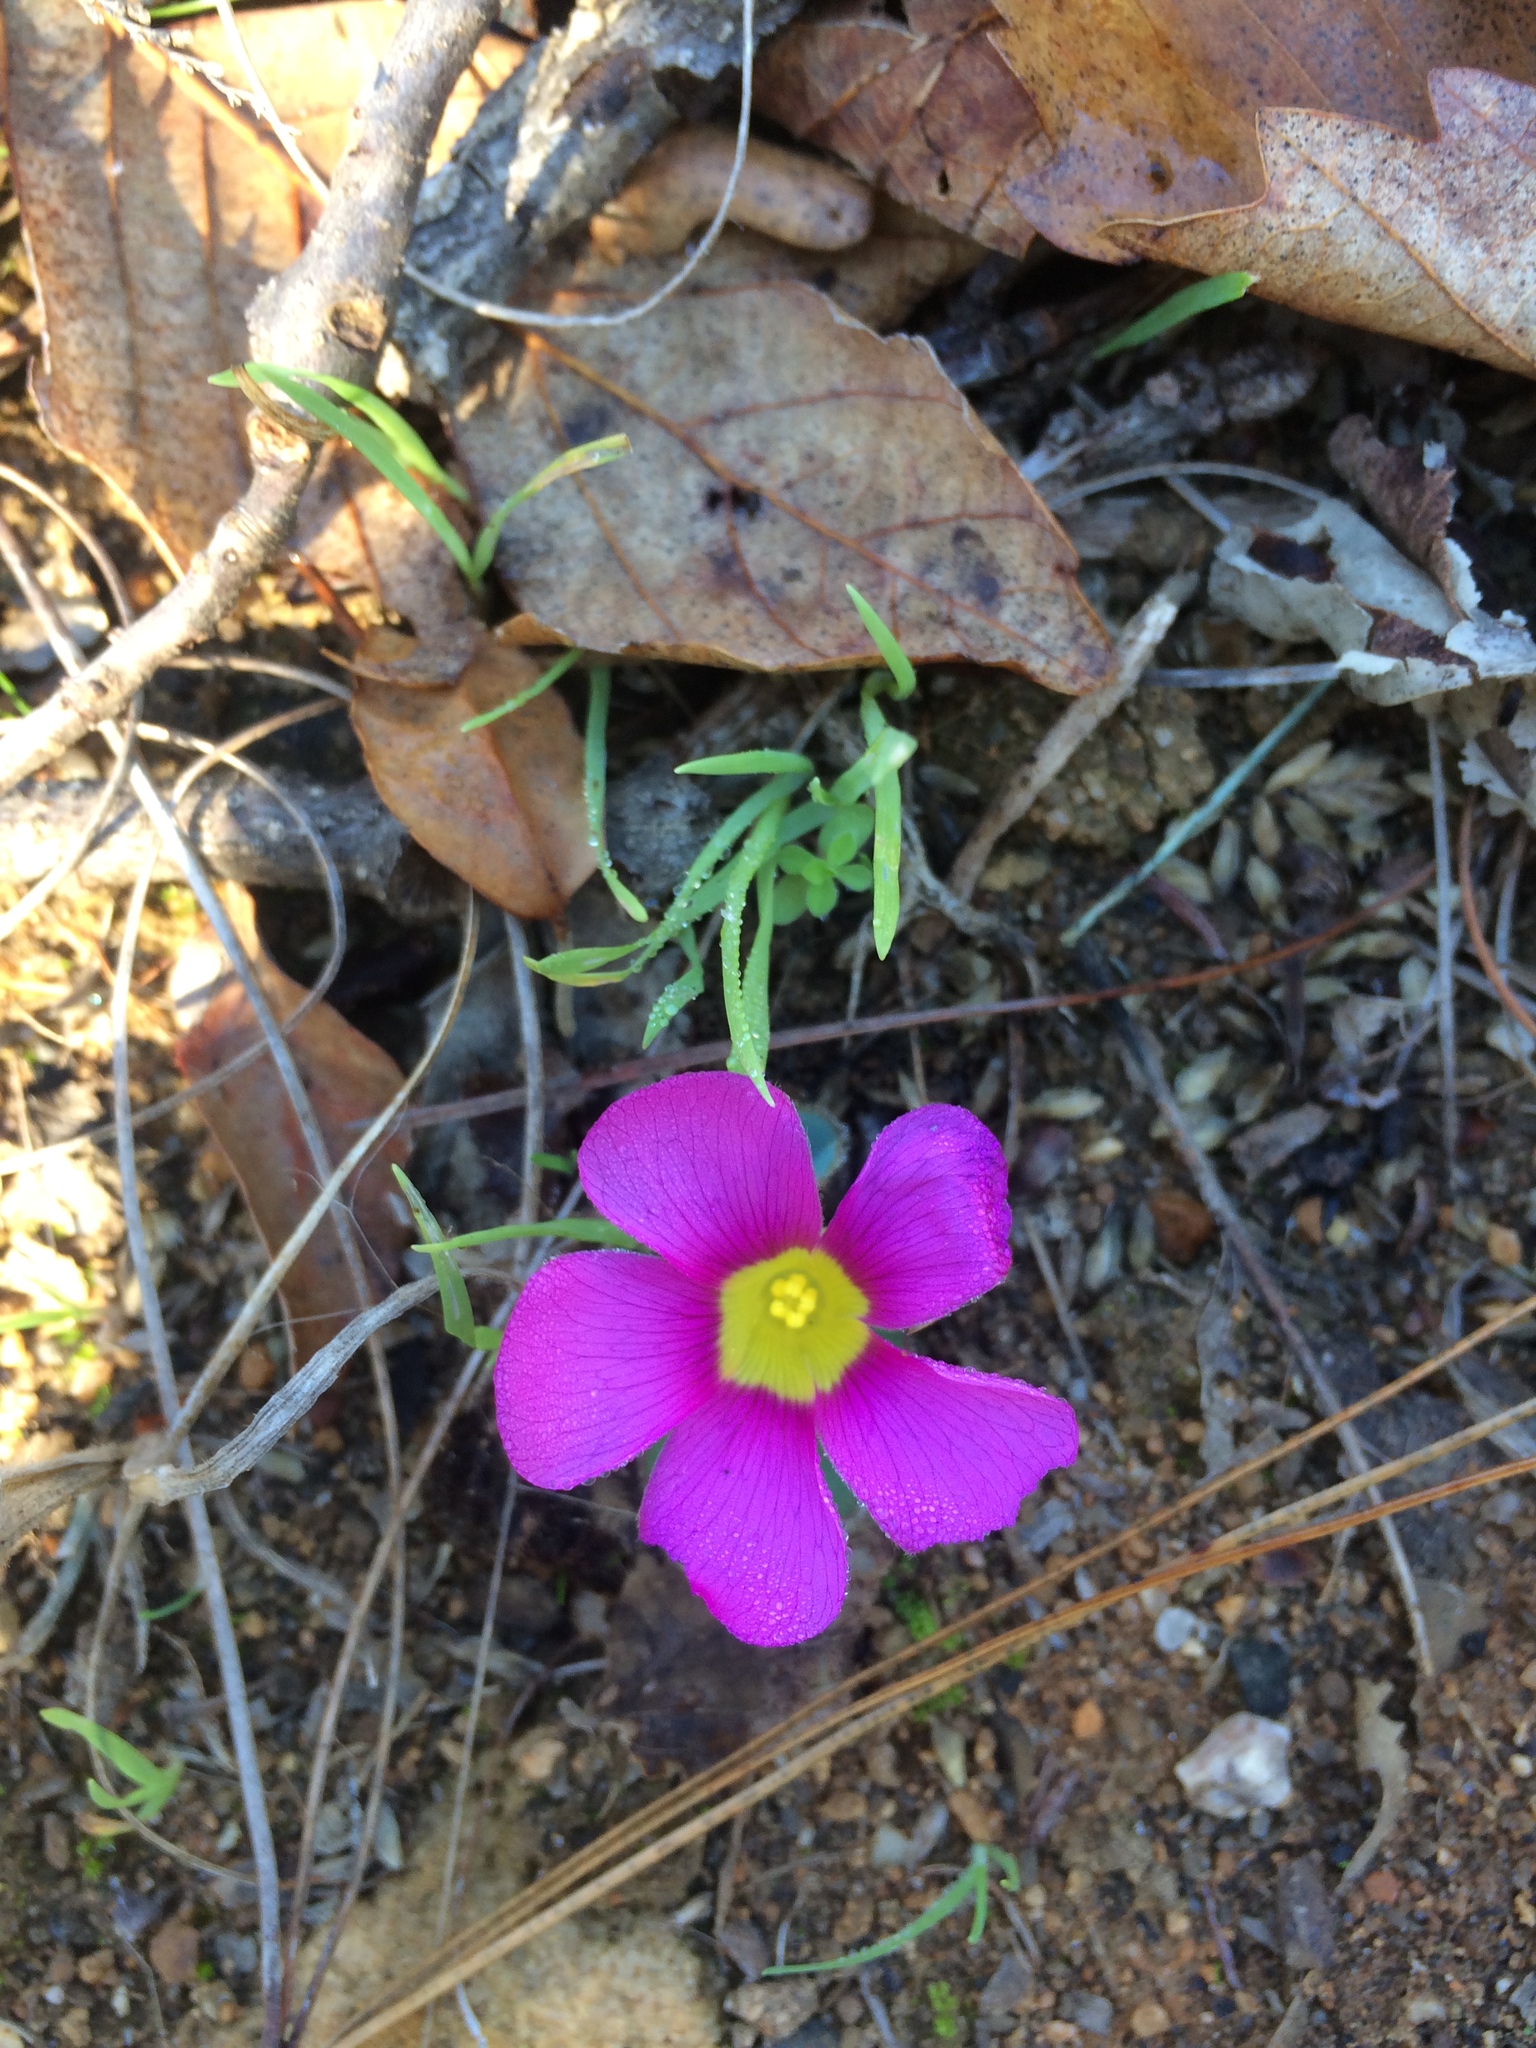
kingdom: Plantae
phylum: Tracheophyta
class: Magnoliopsida
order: Oxalidales
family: Oxalidaceae
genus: Oxalis
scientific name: Oxalis purpurea
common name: Purple woodsorrel
